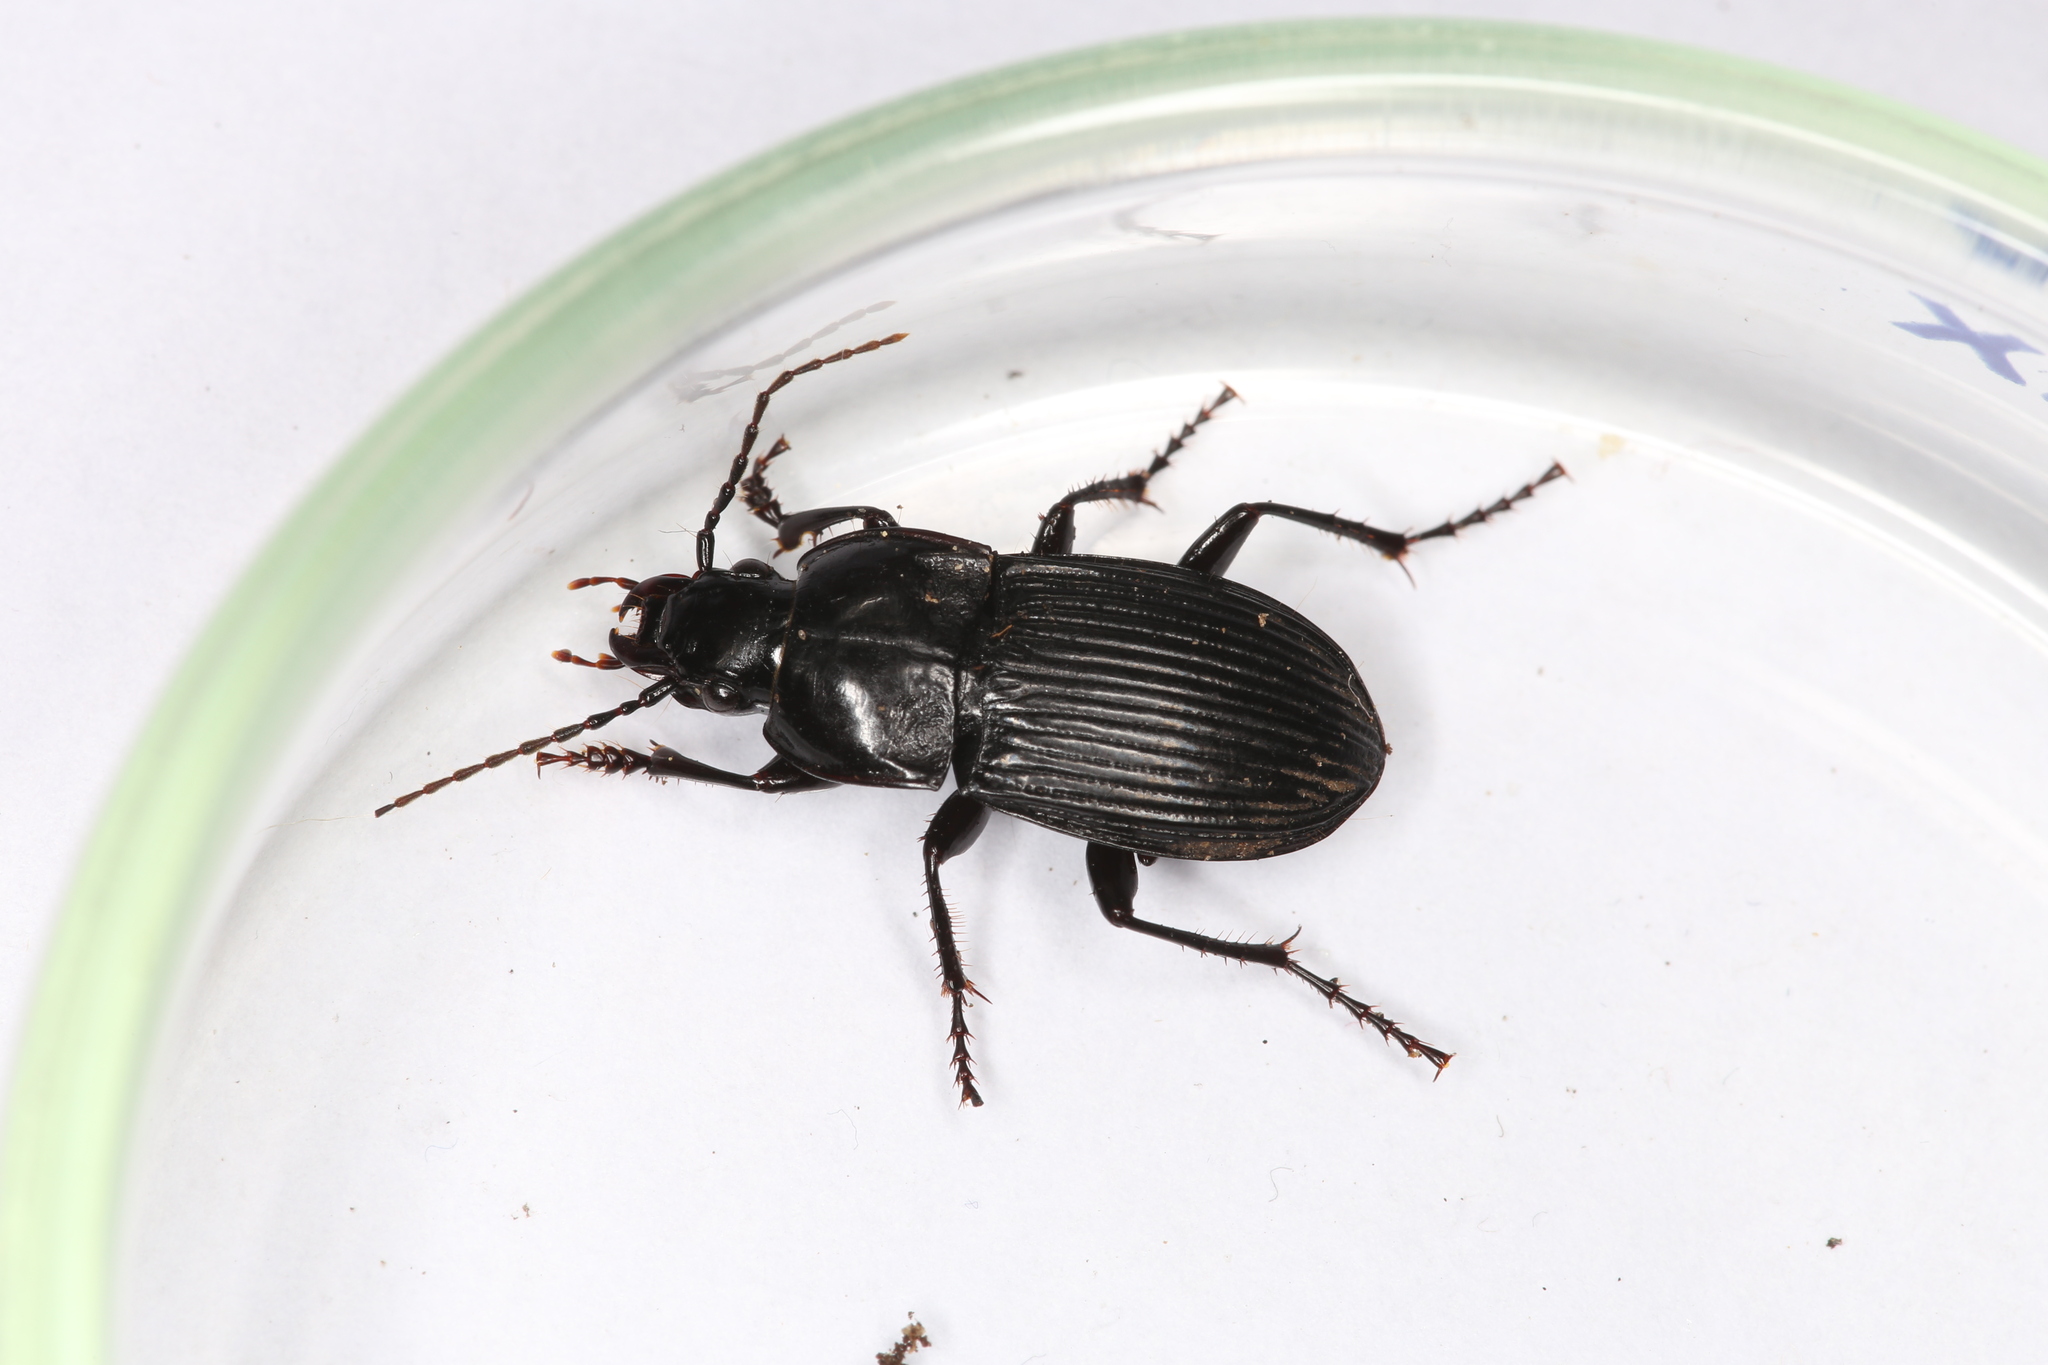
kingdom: Animalia
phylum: Arthropoda
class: Insecta
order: Coleoptera
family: Carabidae
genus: Abax
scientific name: Abax carinatus
